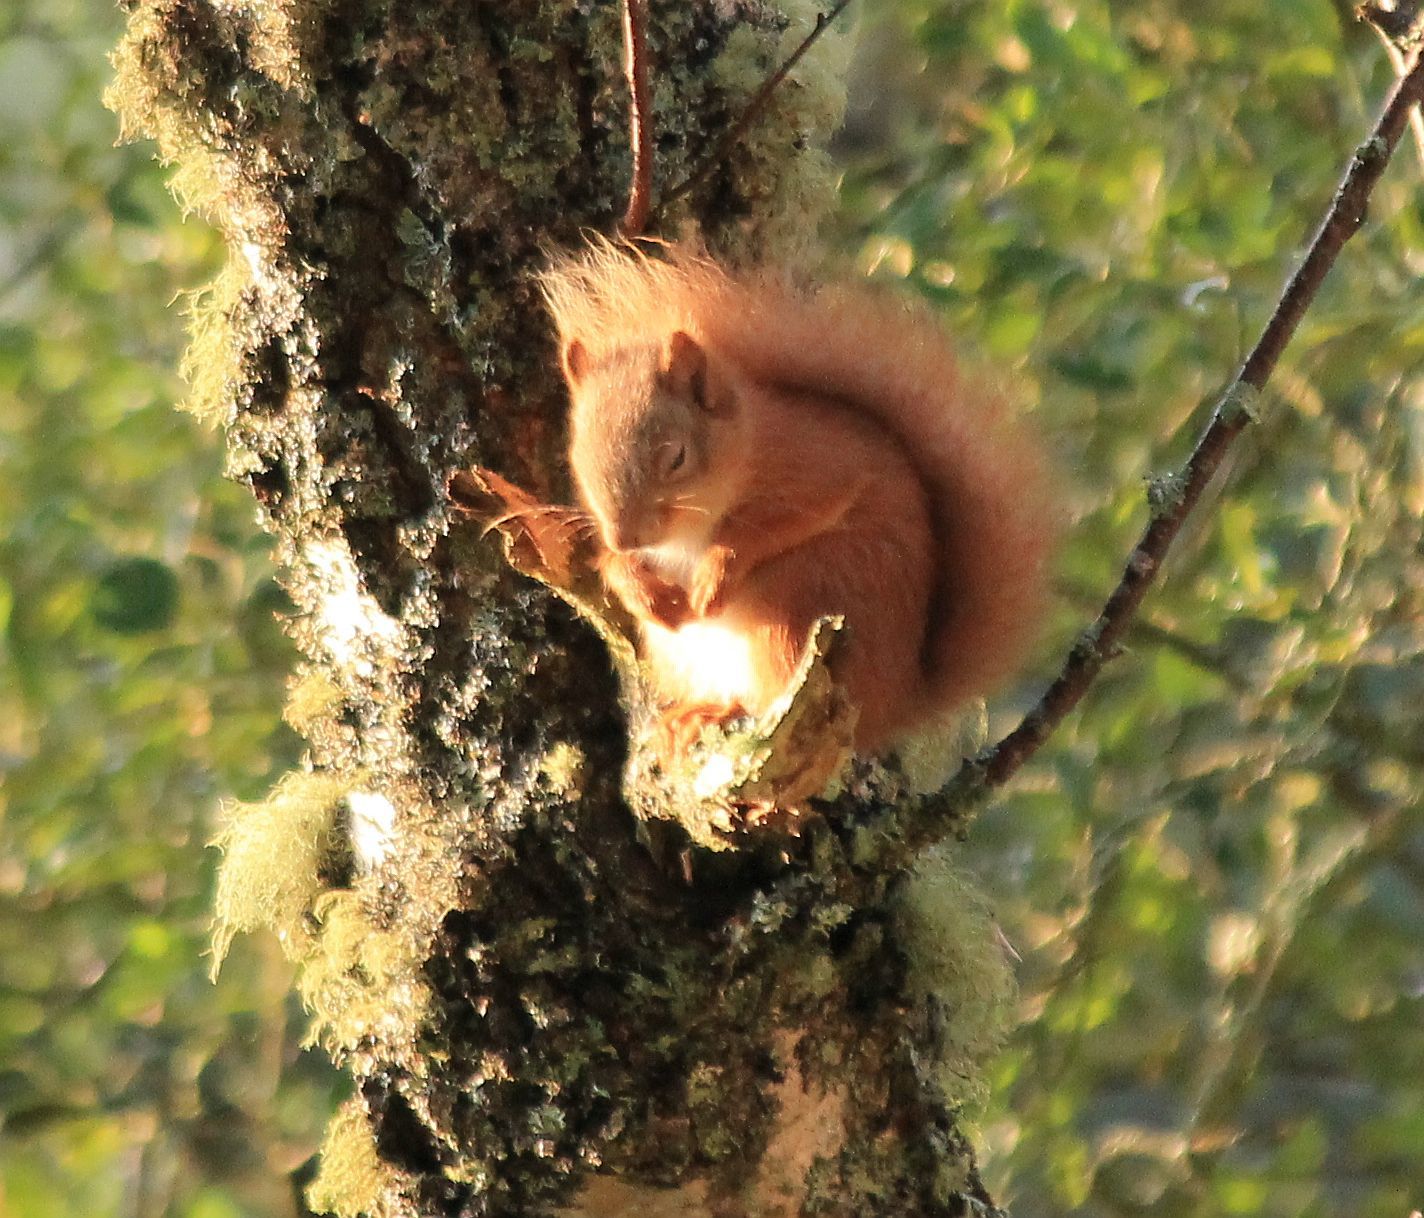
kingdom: Animalia
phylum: Chordata
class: Mammalia
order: Rodentia
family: Sciuridae
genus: Sciurus
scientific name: Sciurus vulgaris
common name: Eurasian red squirrel
